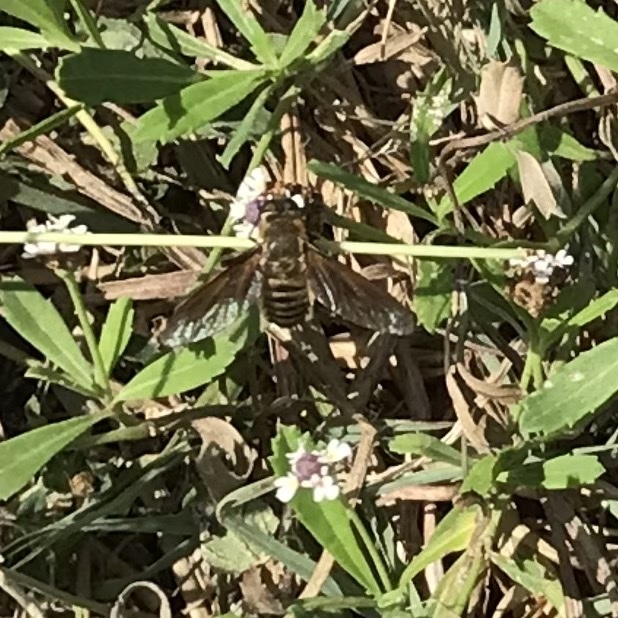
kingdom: Animalia
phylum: Arthropoda
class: Insecta
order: Diptera
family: Bombyliidae
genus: Poecilanthrax
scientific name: Poecilanthrax lucifer
